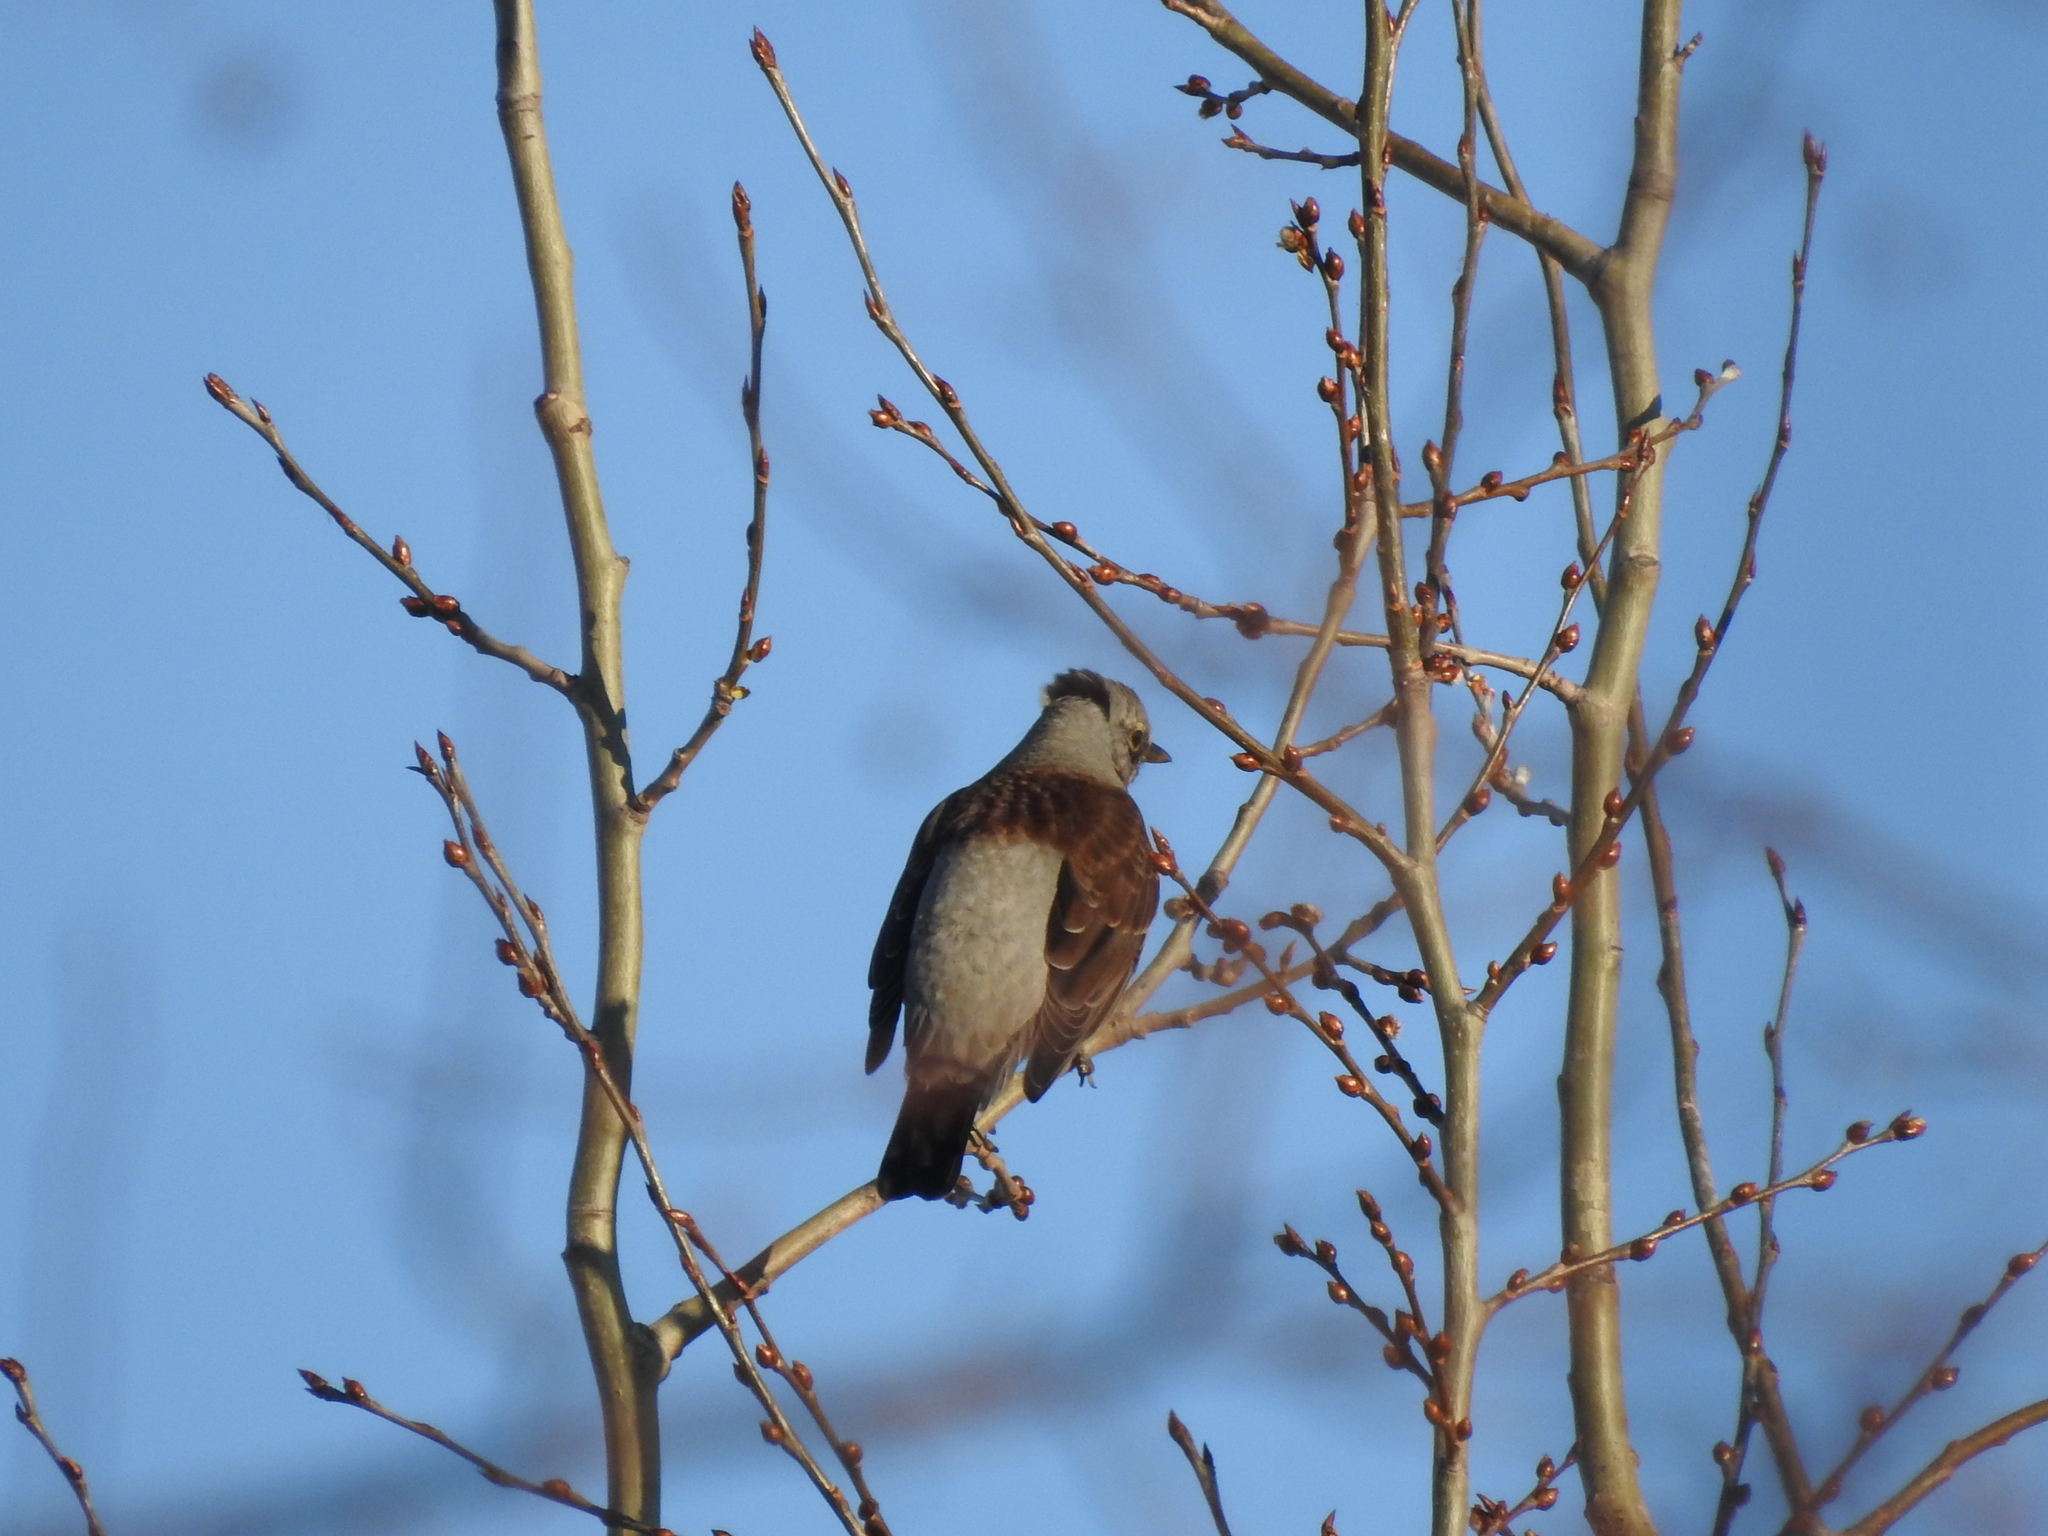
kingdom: Animalia
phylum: Chordata
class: Aves
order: Passeriformes
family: Turdidae
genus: Turdus
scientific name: Turdus pilaris
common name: Fieldfare
